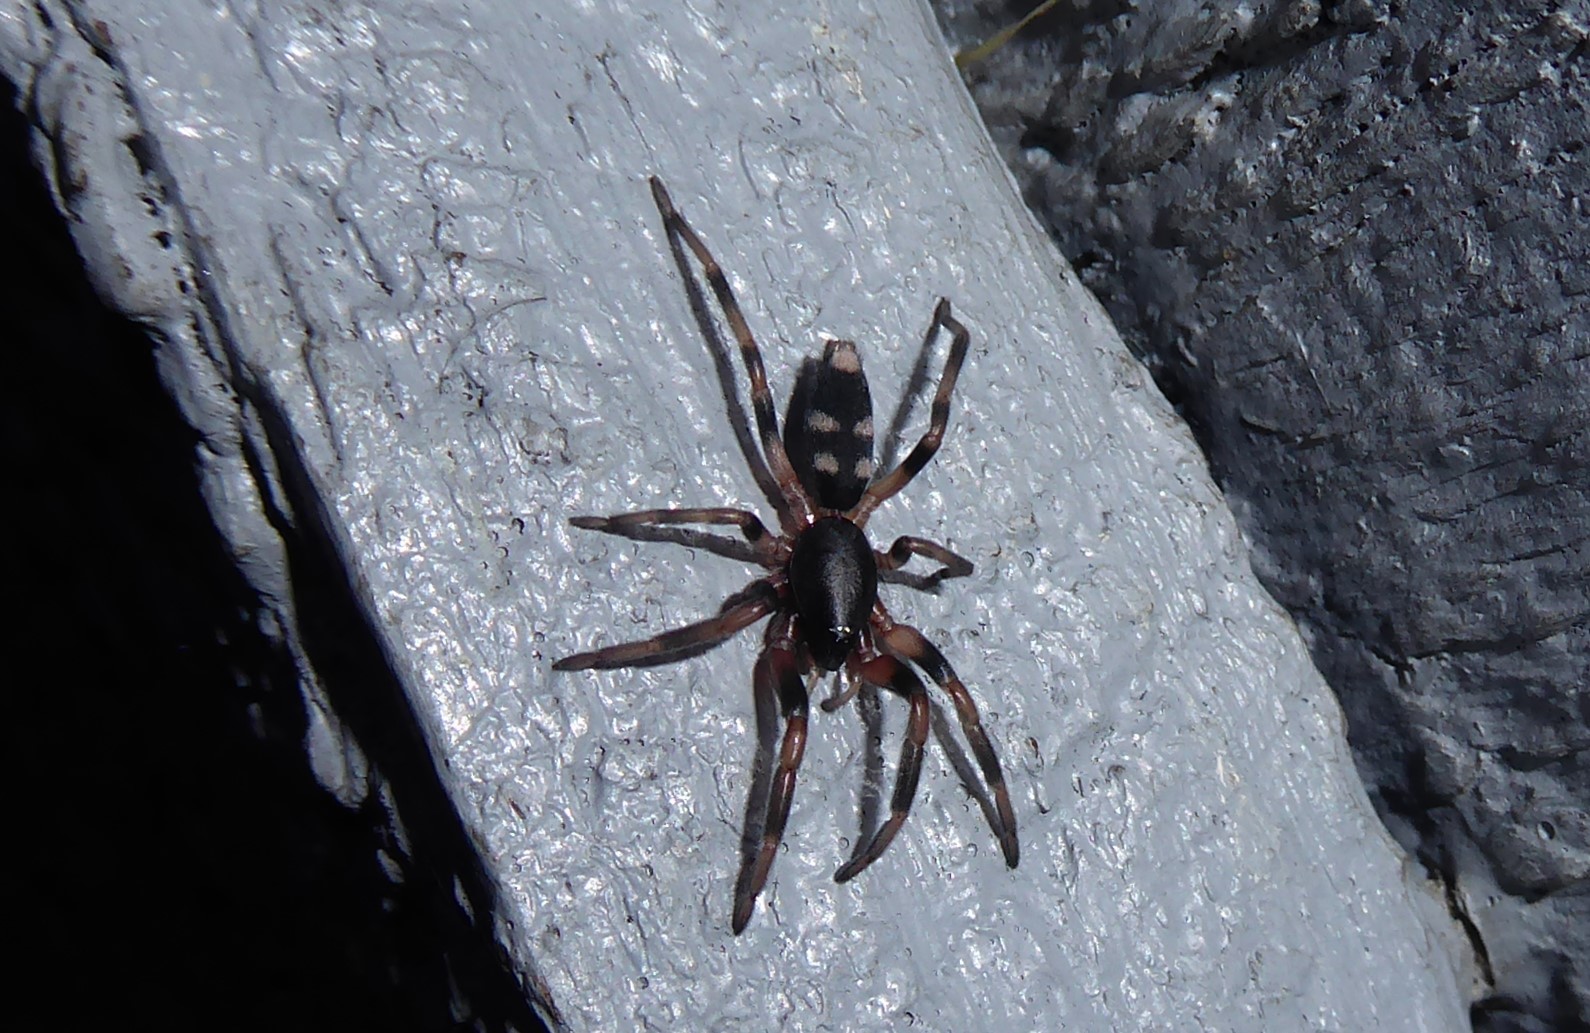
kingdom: Animalia
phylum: Arthropoda
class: Arachnida
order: Araneae
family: Lamponidae
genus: Lampona
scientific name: Lampona cylindrata
